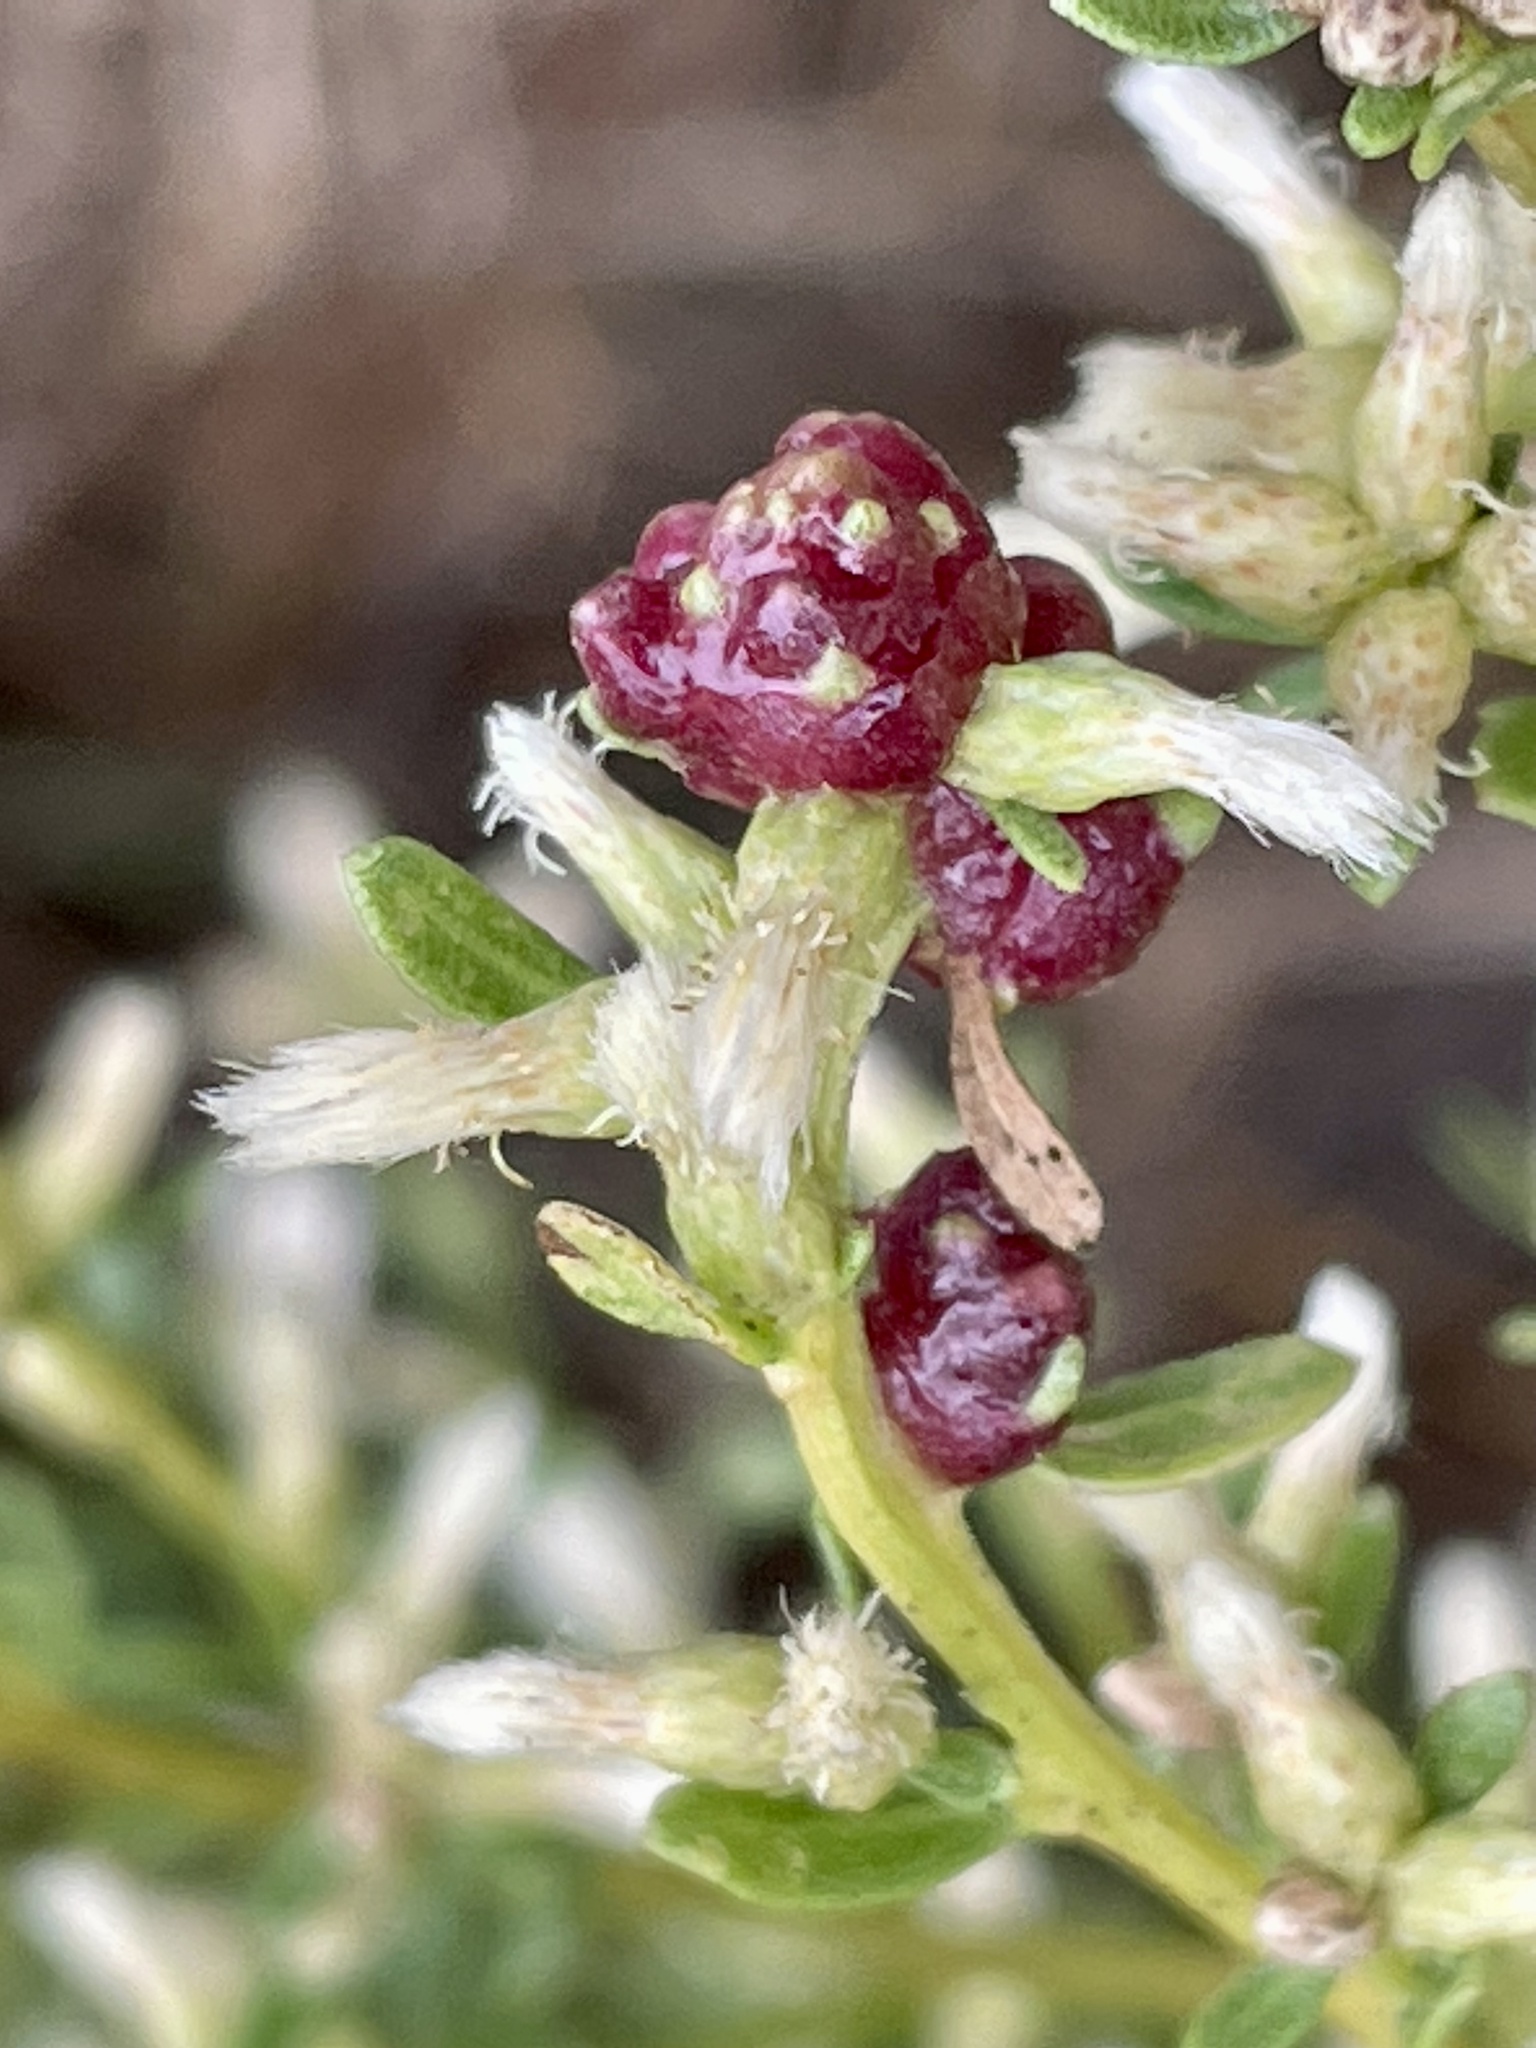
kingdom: Animalia
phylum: Arthropoda
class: Insecta
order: Diptera
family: Cecidomyiidae
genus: Rhopalomyia
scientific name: Rhopalomyia californica
